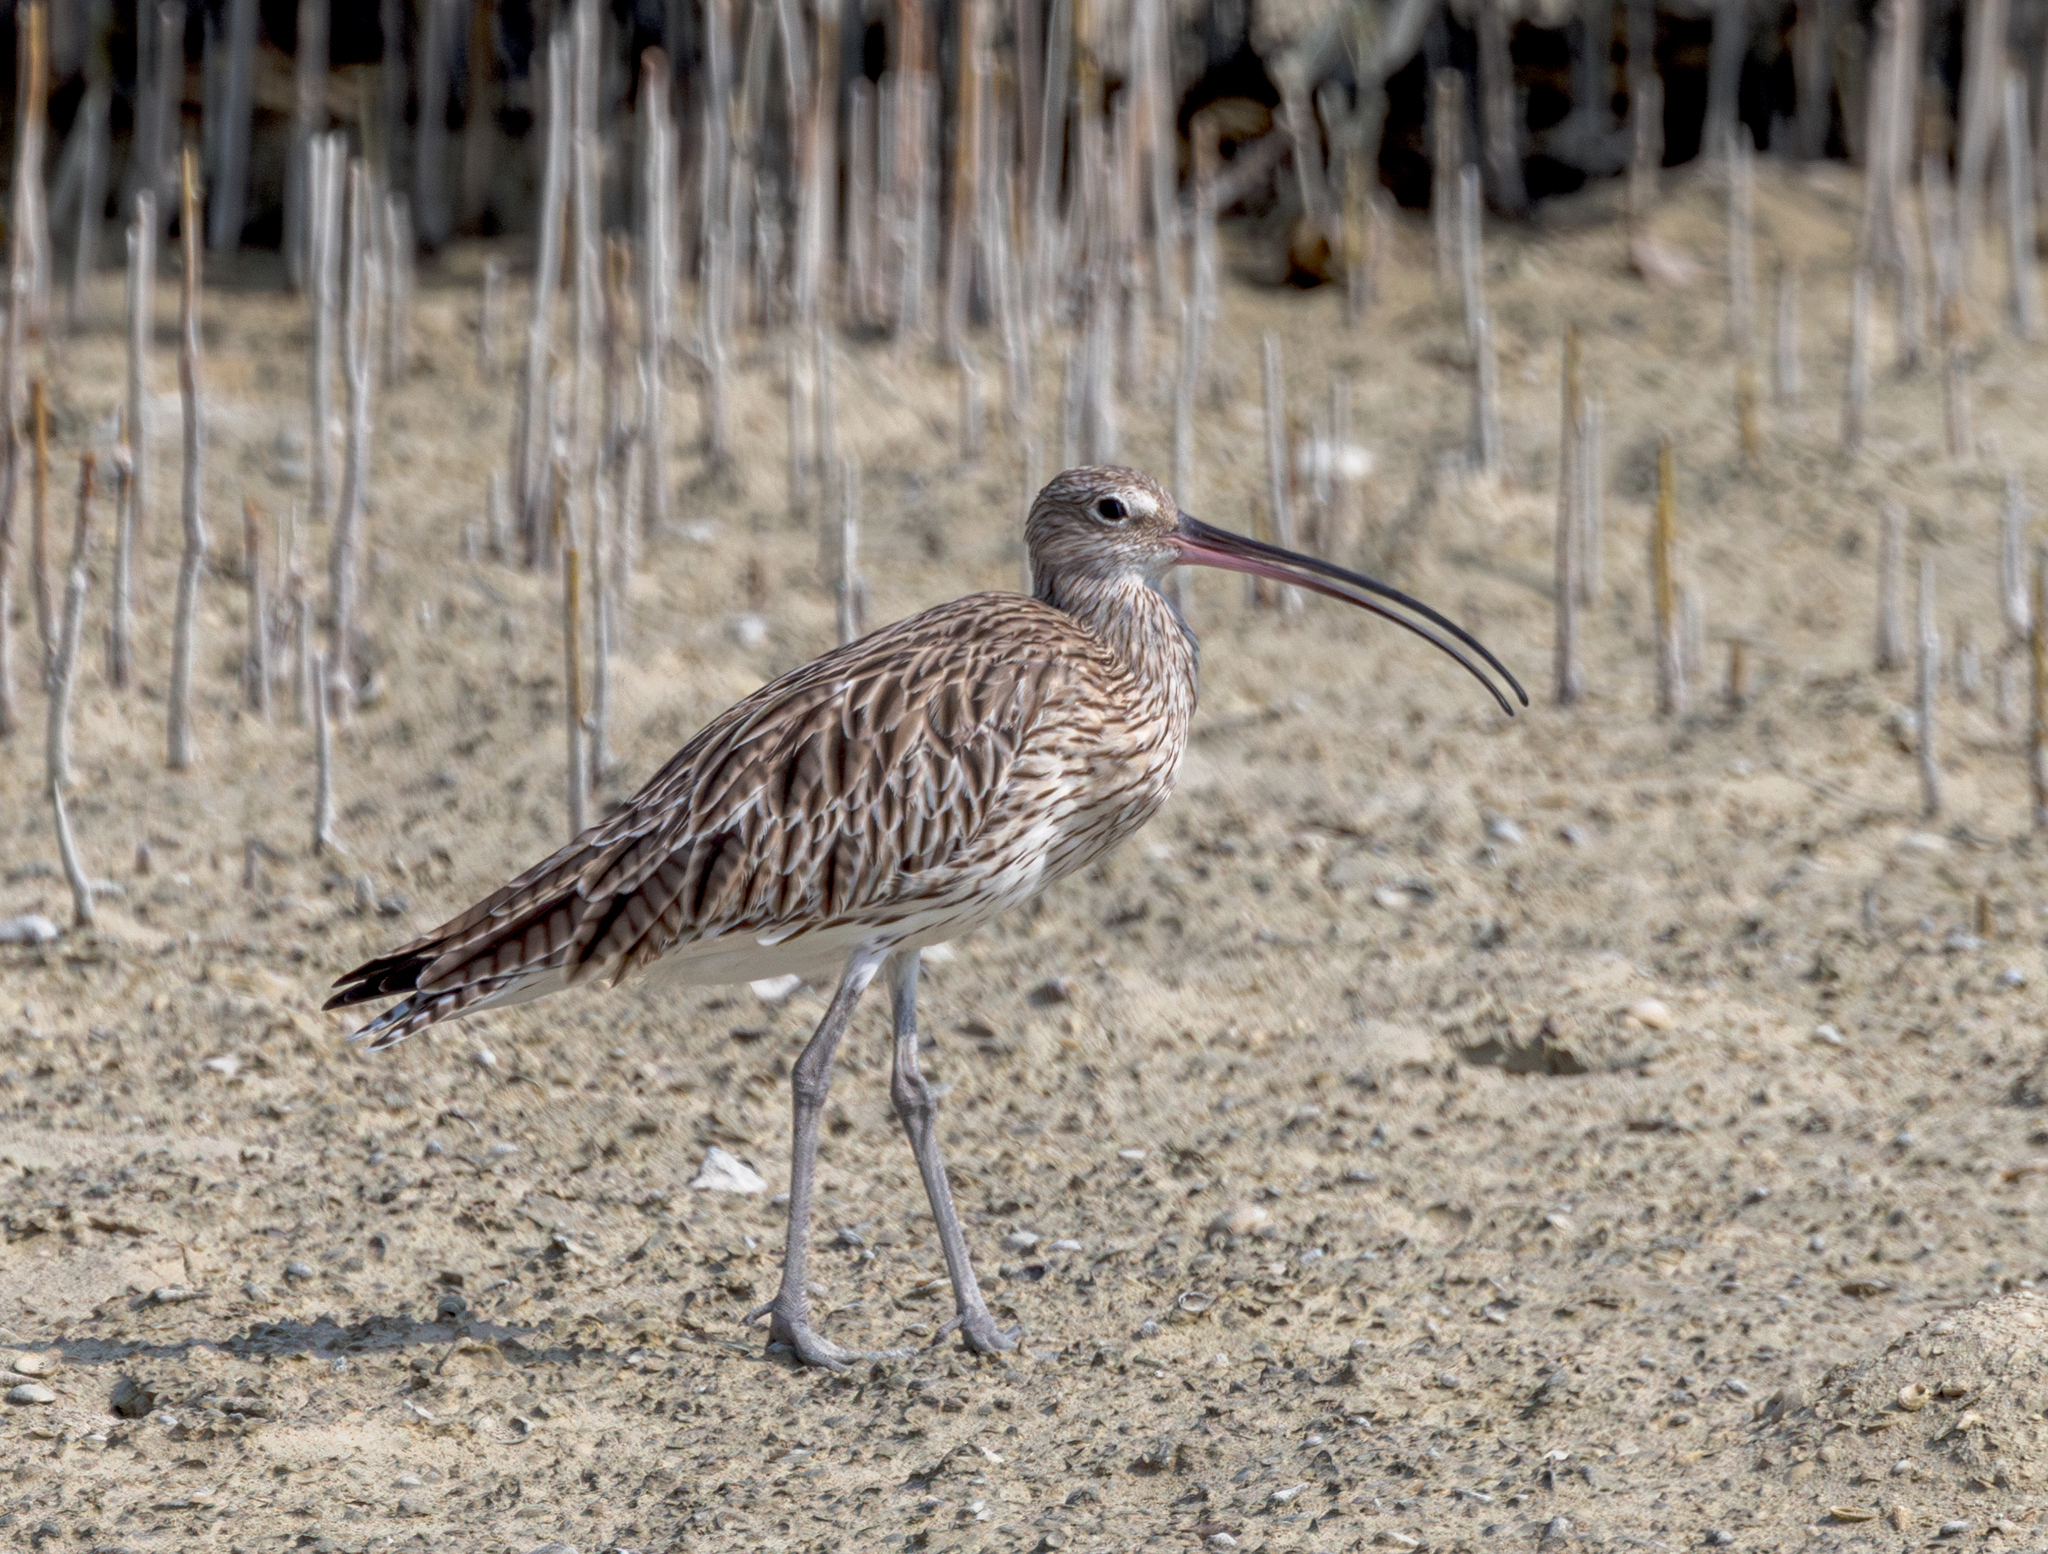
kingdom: Animalia
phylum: Chordata
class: Aves
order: Charadriiformes
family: Scolopacidae
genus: Numenius
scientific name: Numenius arquata
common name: Eurasian curlew
